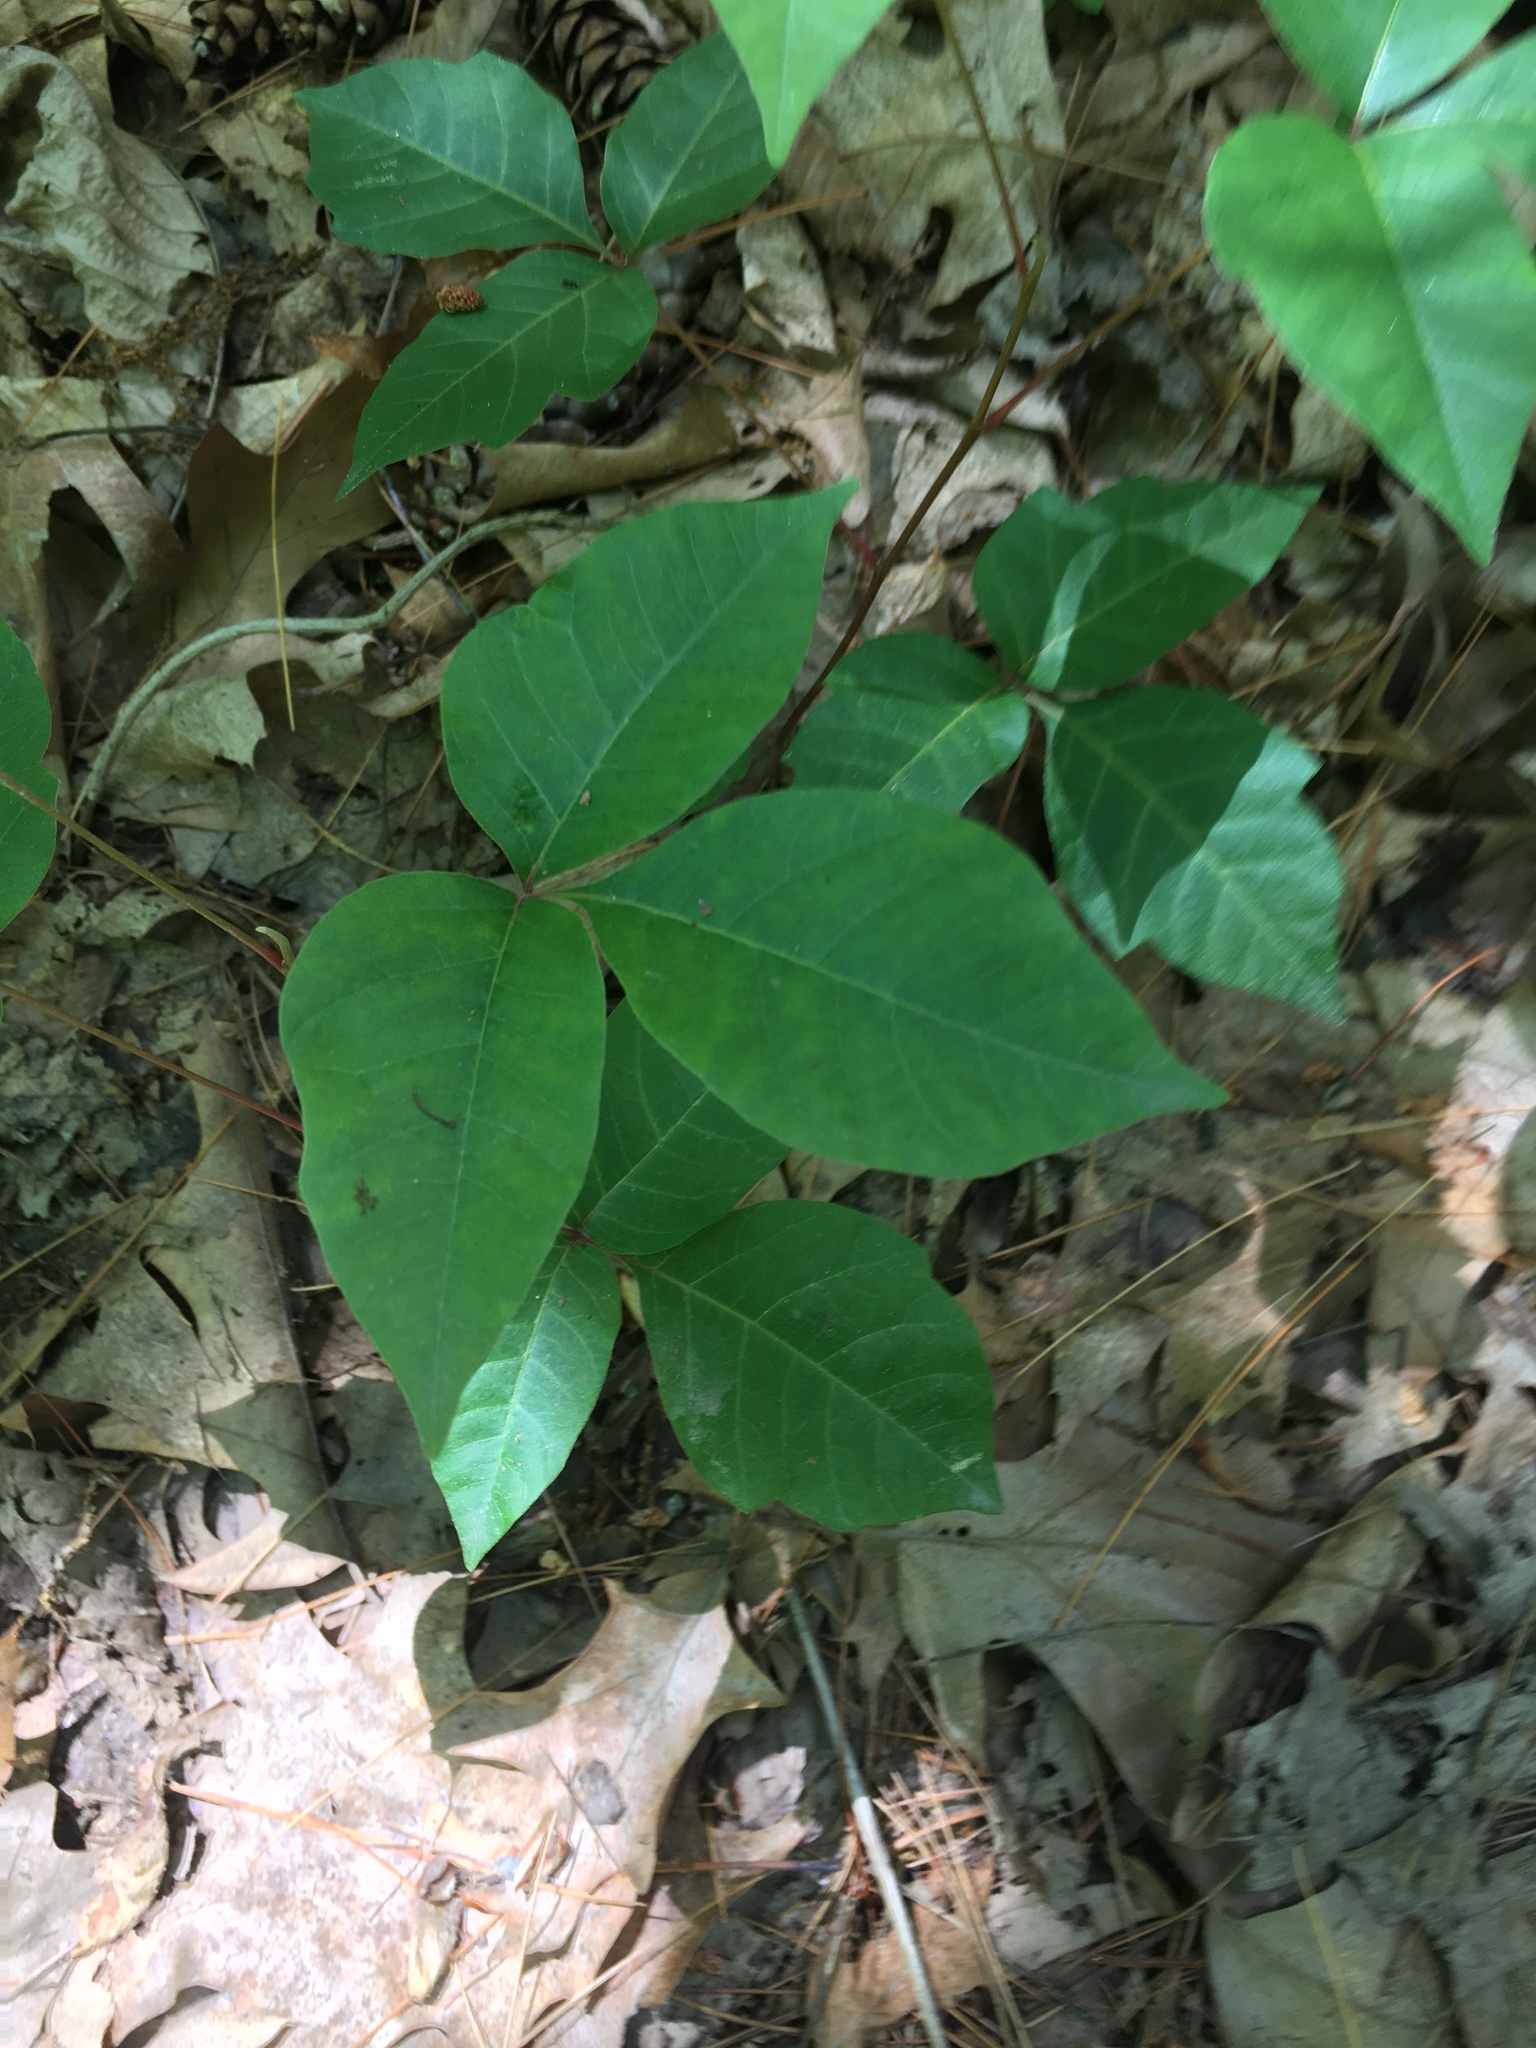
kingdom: Plantae
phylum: Tracheophyta
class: Magnoliopsida
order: Sapindales
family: Anacardiaceae
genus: Toxicodendron
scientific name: Toxicodendron radicans
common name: Poison ivy
